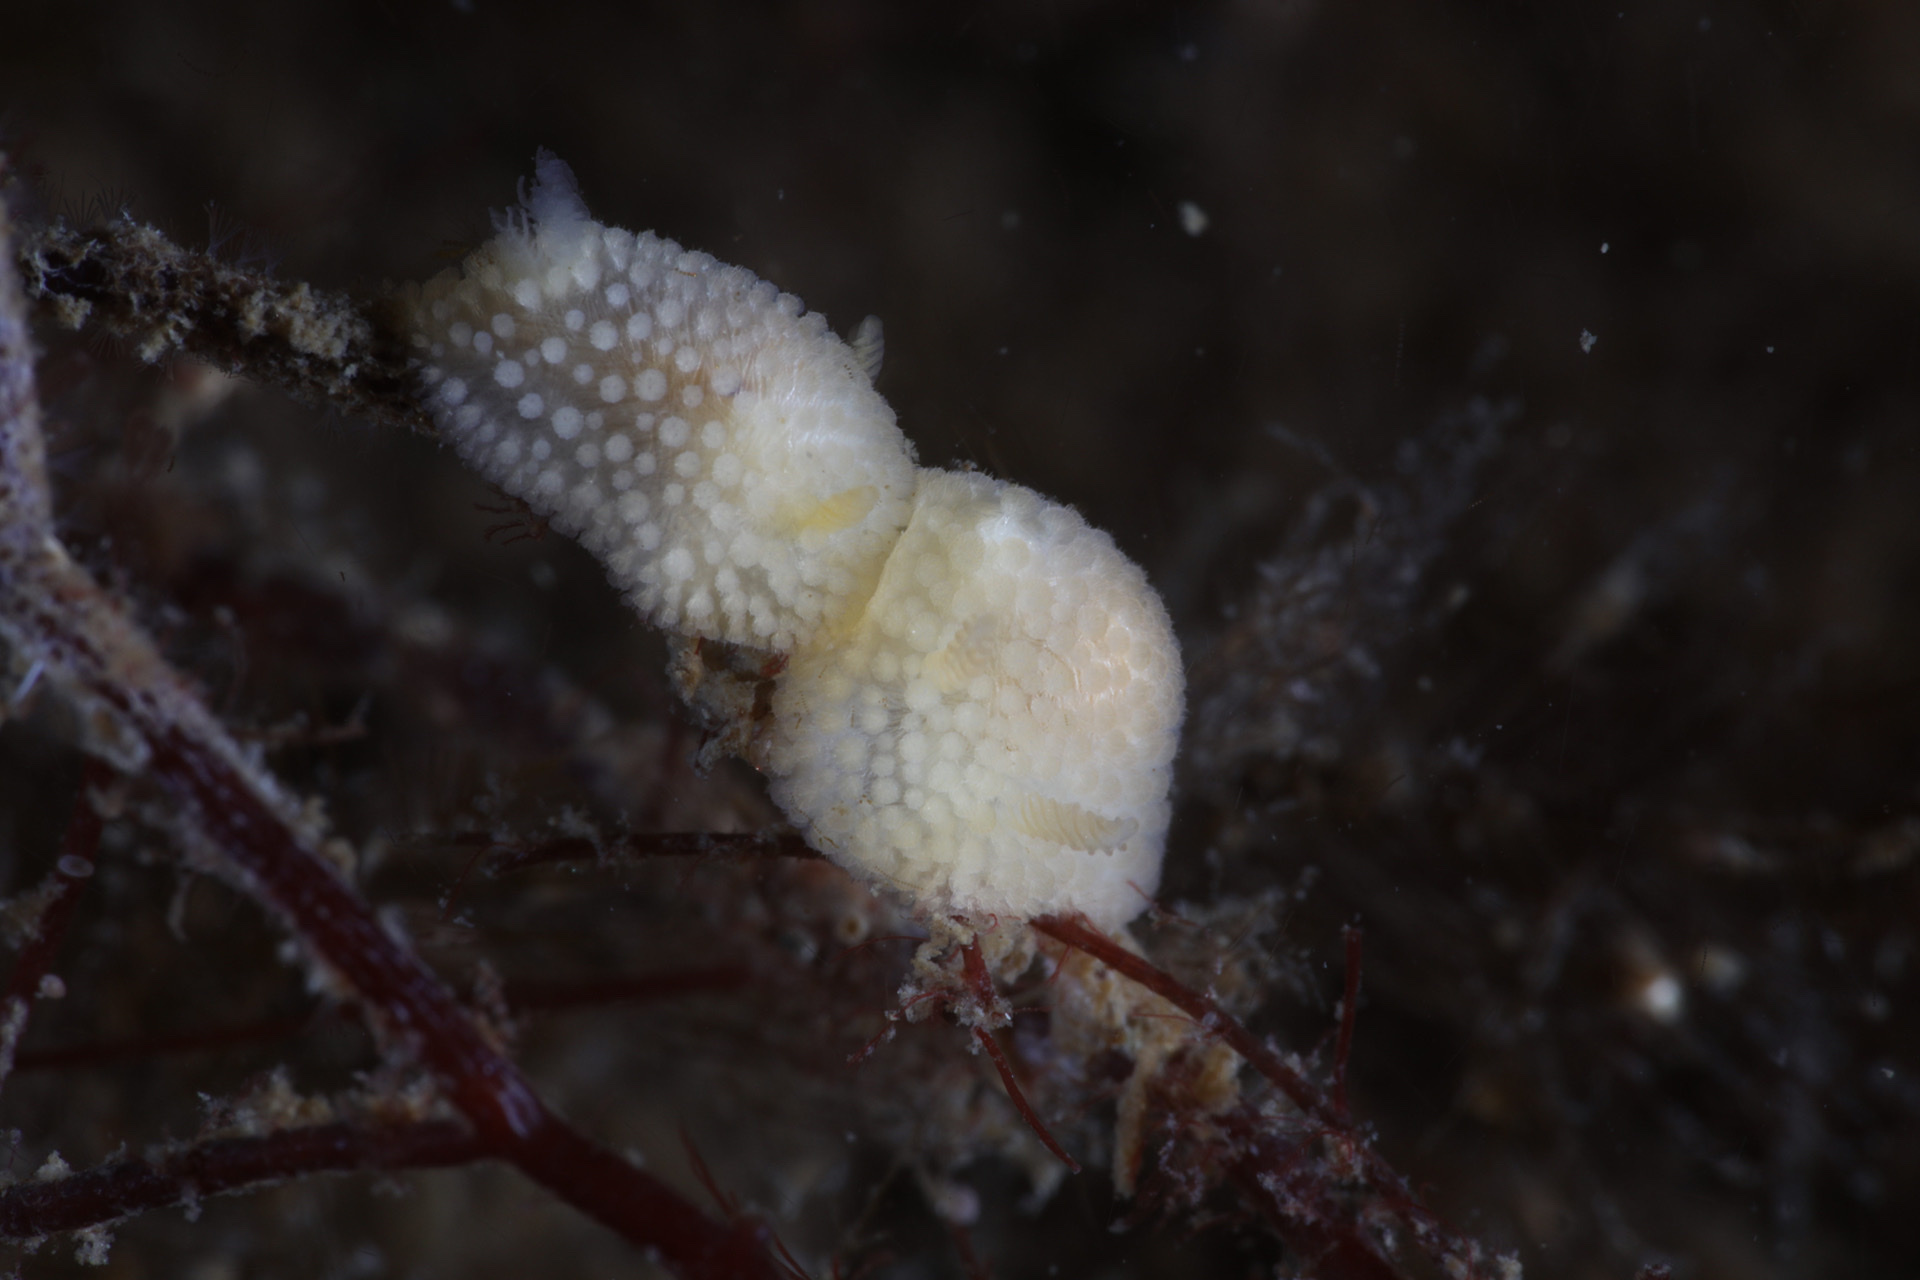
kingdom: Animalia
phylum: Mollusca
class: Gastropoda
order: Nudibranchia
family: Onchidorididae
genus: Onchidoris
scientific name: Onchidoris muricata
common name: Rough doris
